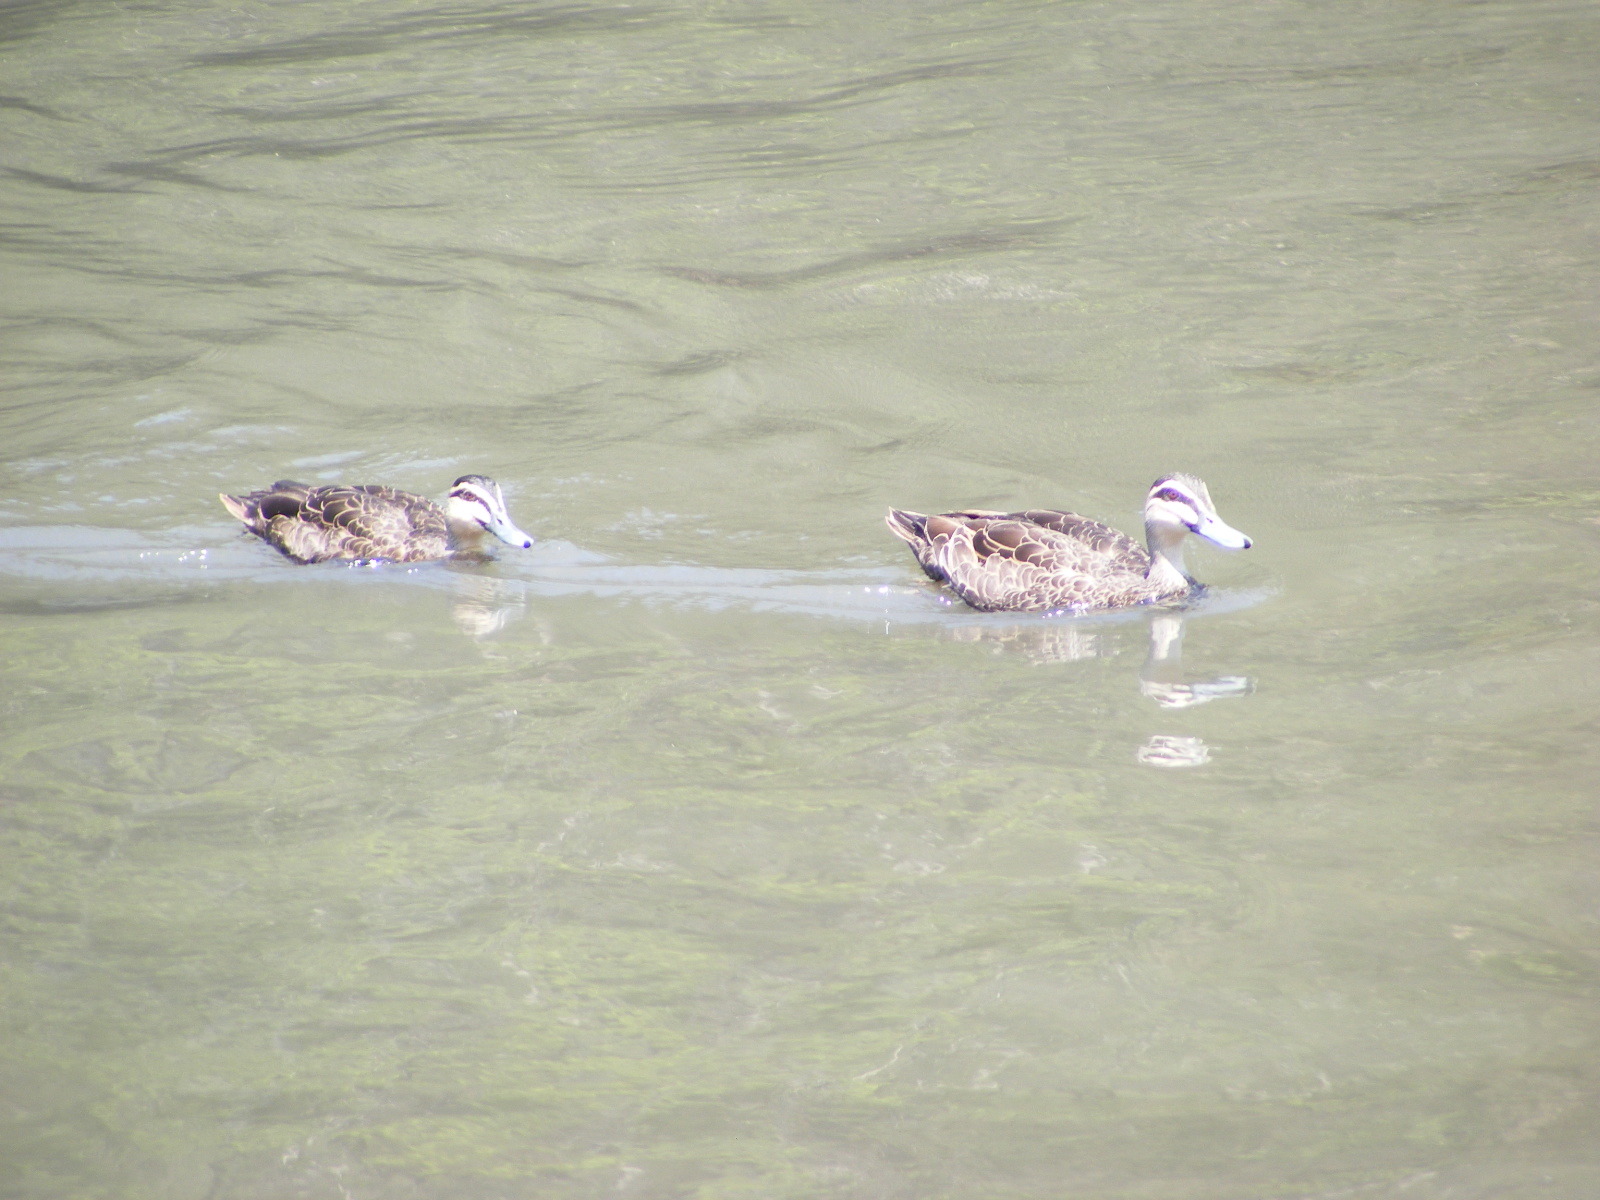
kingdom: Animalia
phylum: Chordata
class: Aves
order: Anseriformes
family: Anatidae
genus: Anas
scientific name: Anas superciliosa
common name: Pacific black duck
